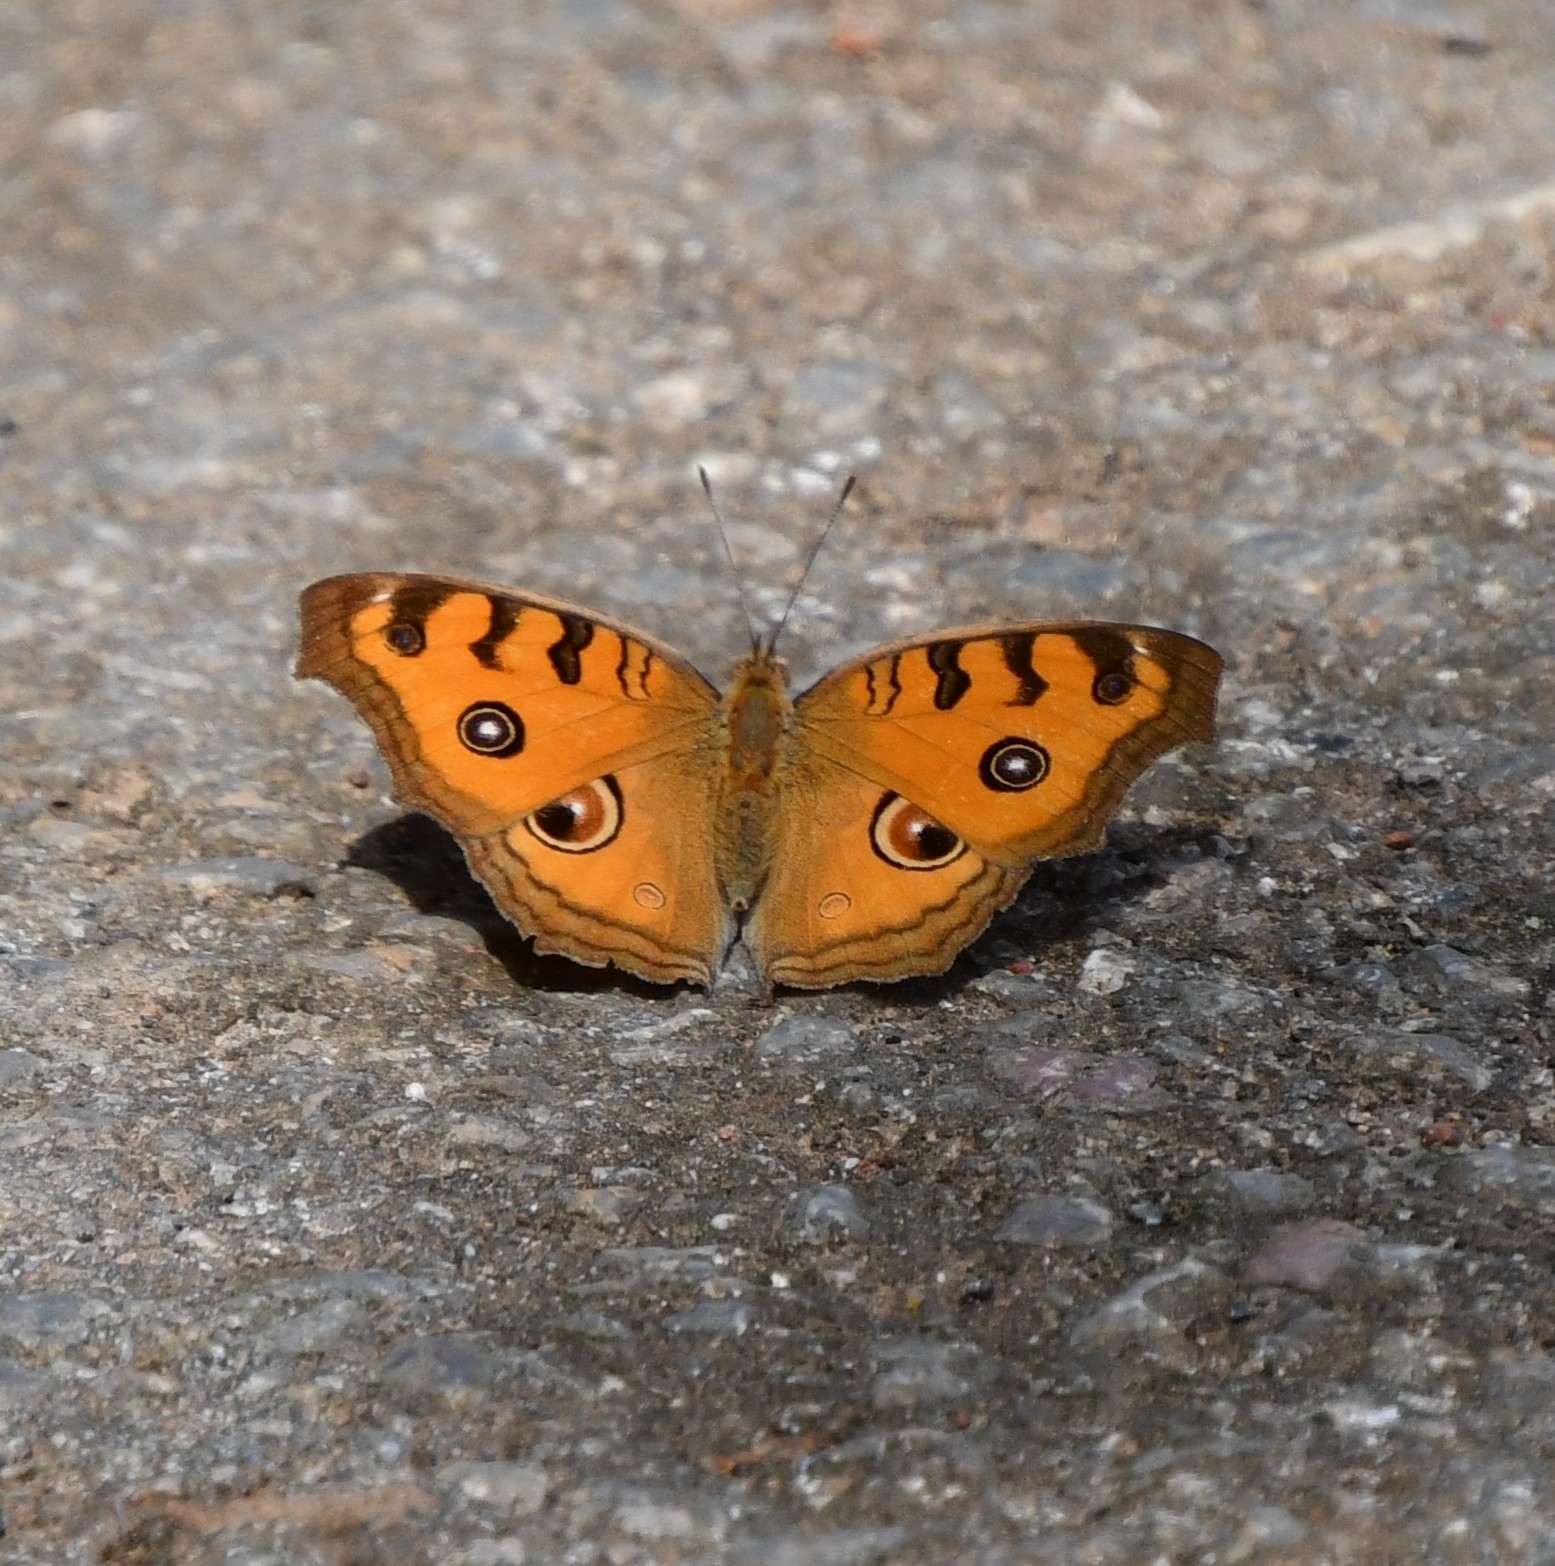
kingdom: Animalia
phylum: Arthropoda
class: Insecta
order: Lepidoptera
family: Nymphalidae
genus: Junonia
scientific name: Junonia almana
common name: Peacock pansy
